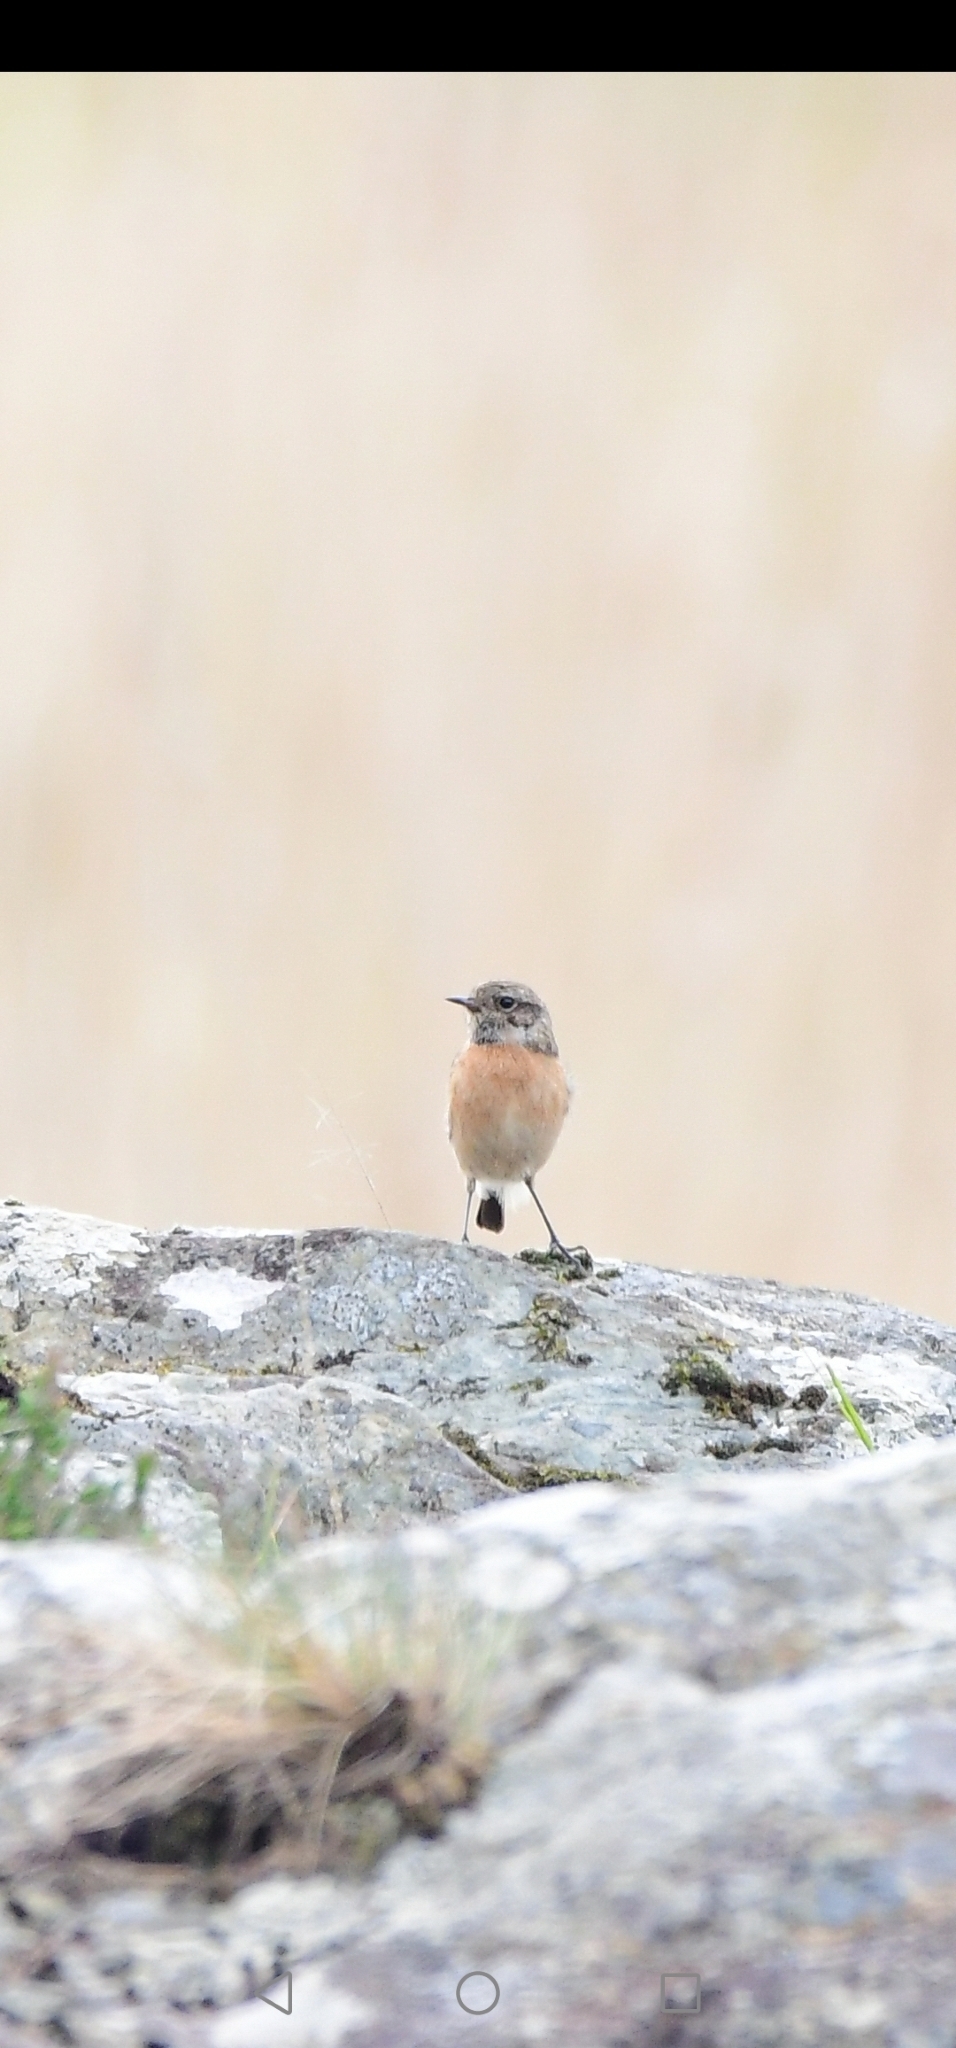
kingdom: Animalia
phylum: Chordata
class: Aves
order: Passeriformes
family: Muscicapidae
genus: Saxicola
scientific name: Saxicola rubicola
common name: European stonechat
